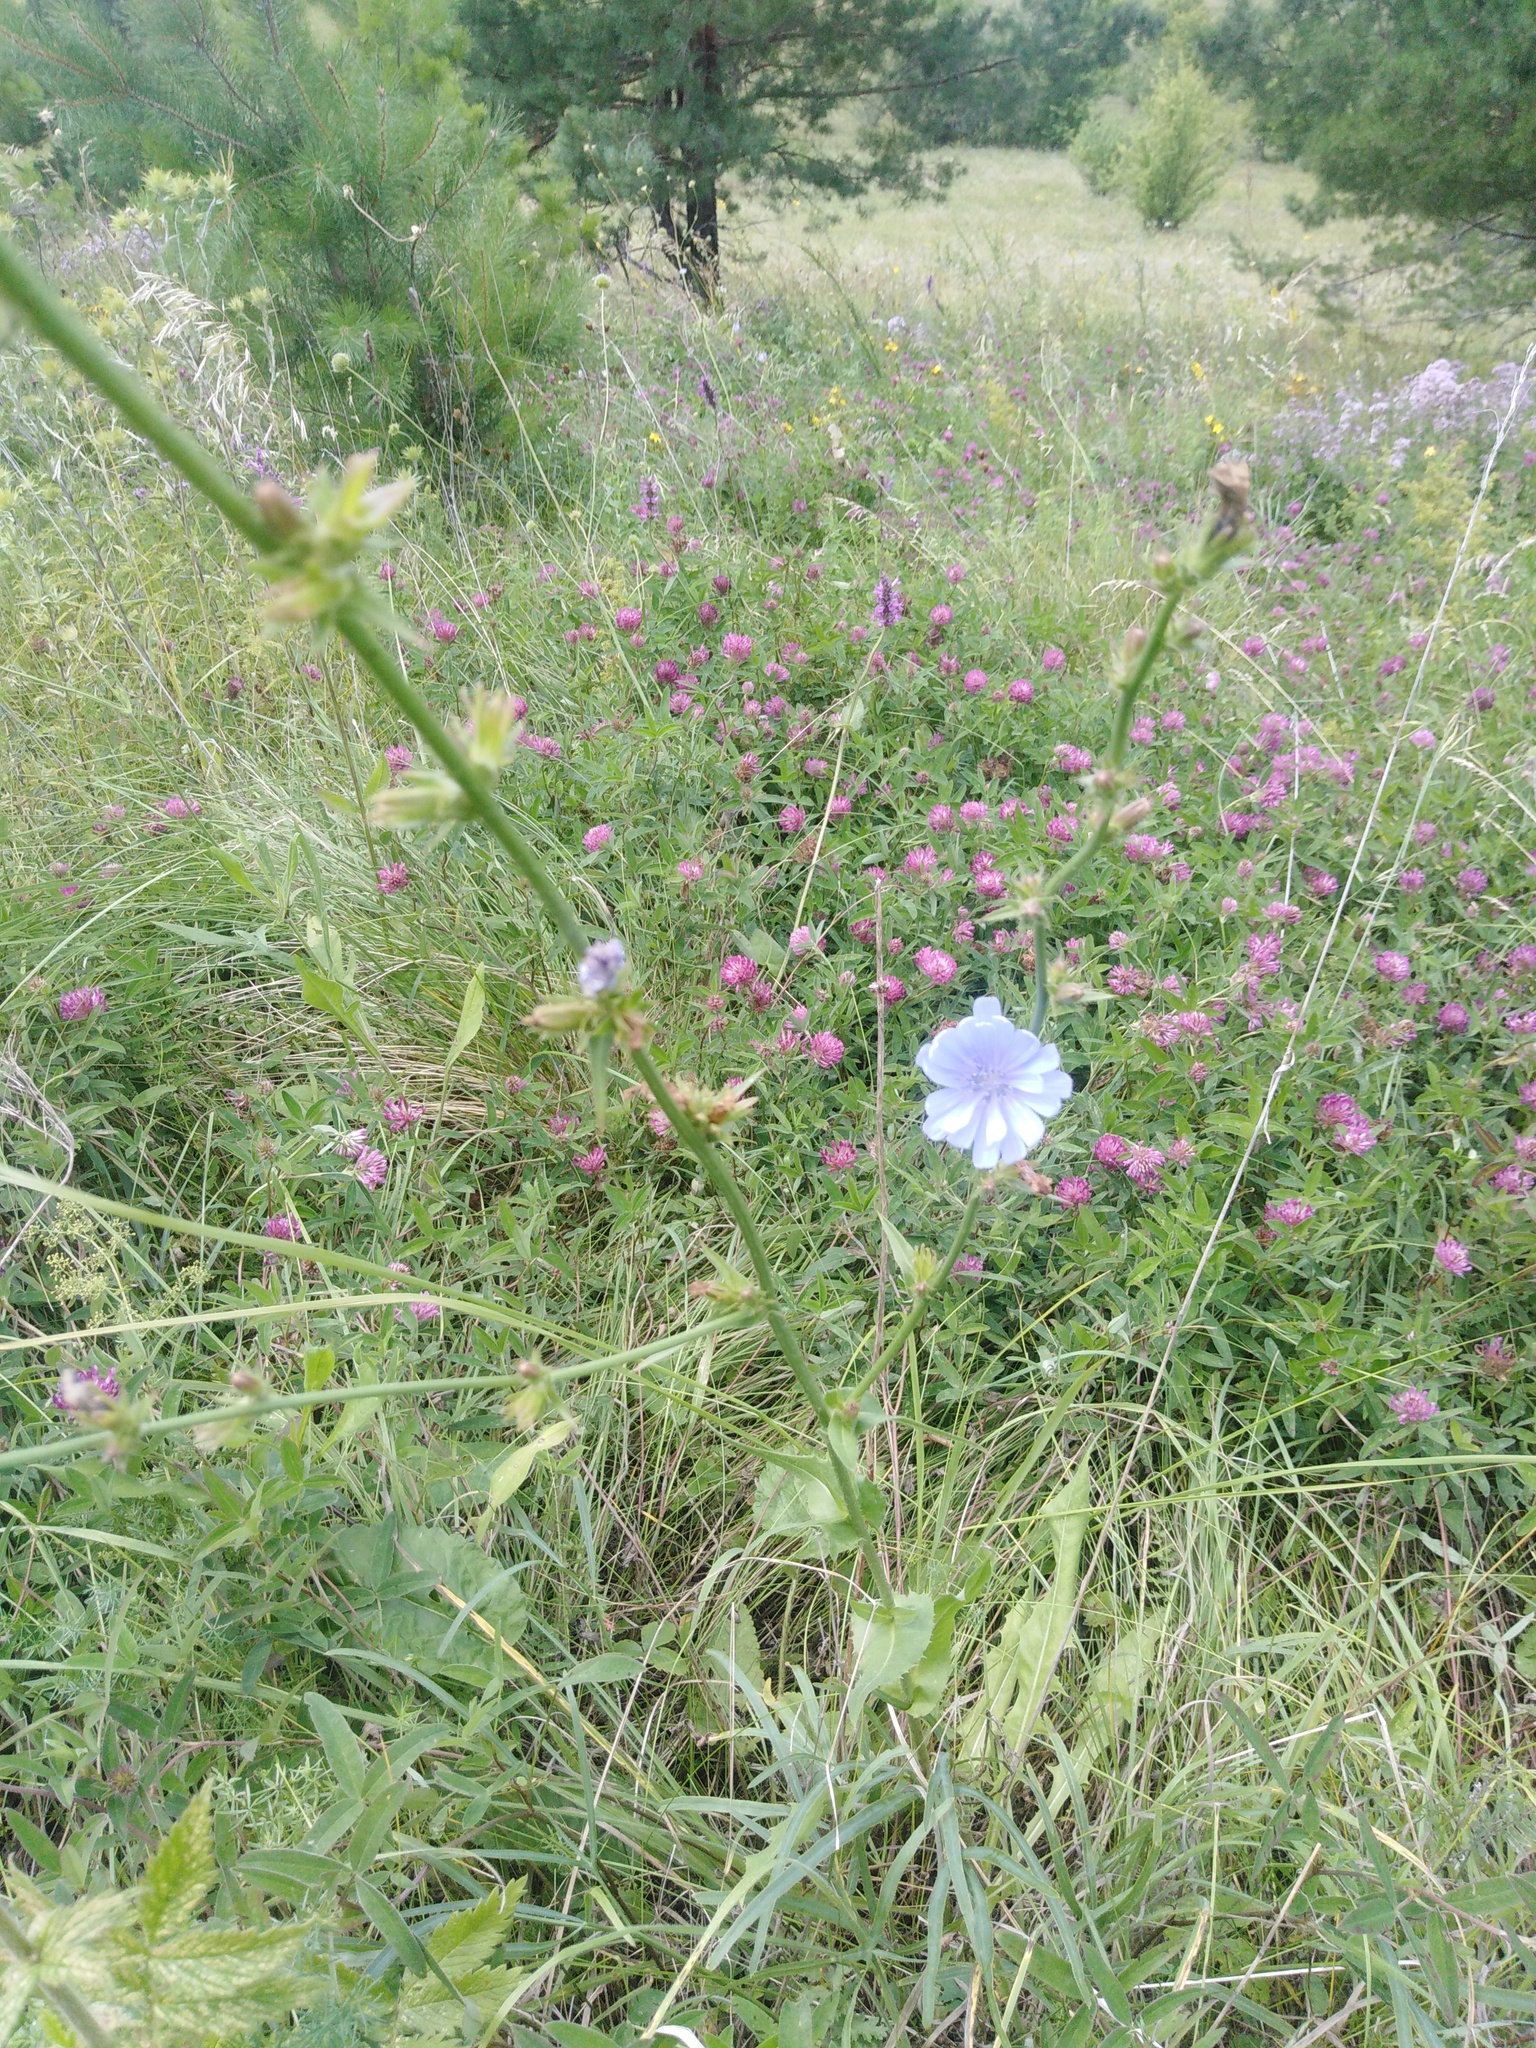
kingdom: Plantae
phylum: Tracheophyta
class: Magnoliopsida
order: Asterales
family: Asteraceae
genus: Cichorium
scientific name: Cichorium intybus
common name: Chicory
